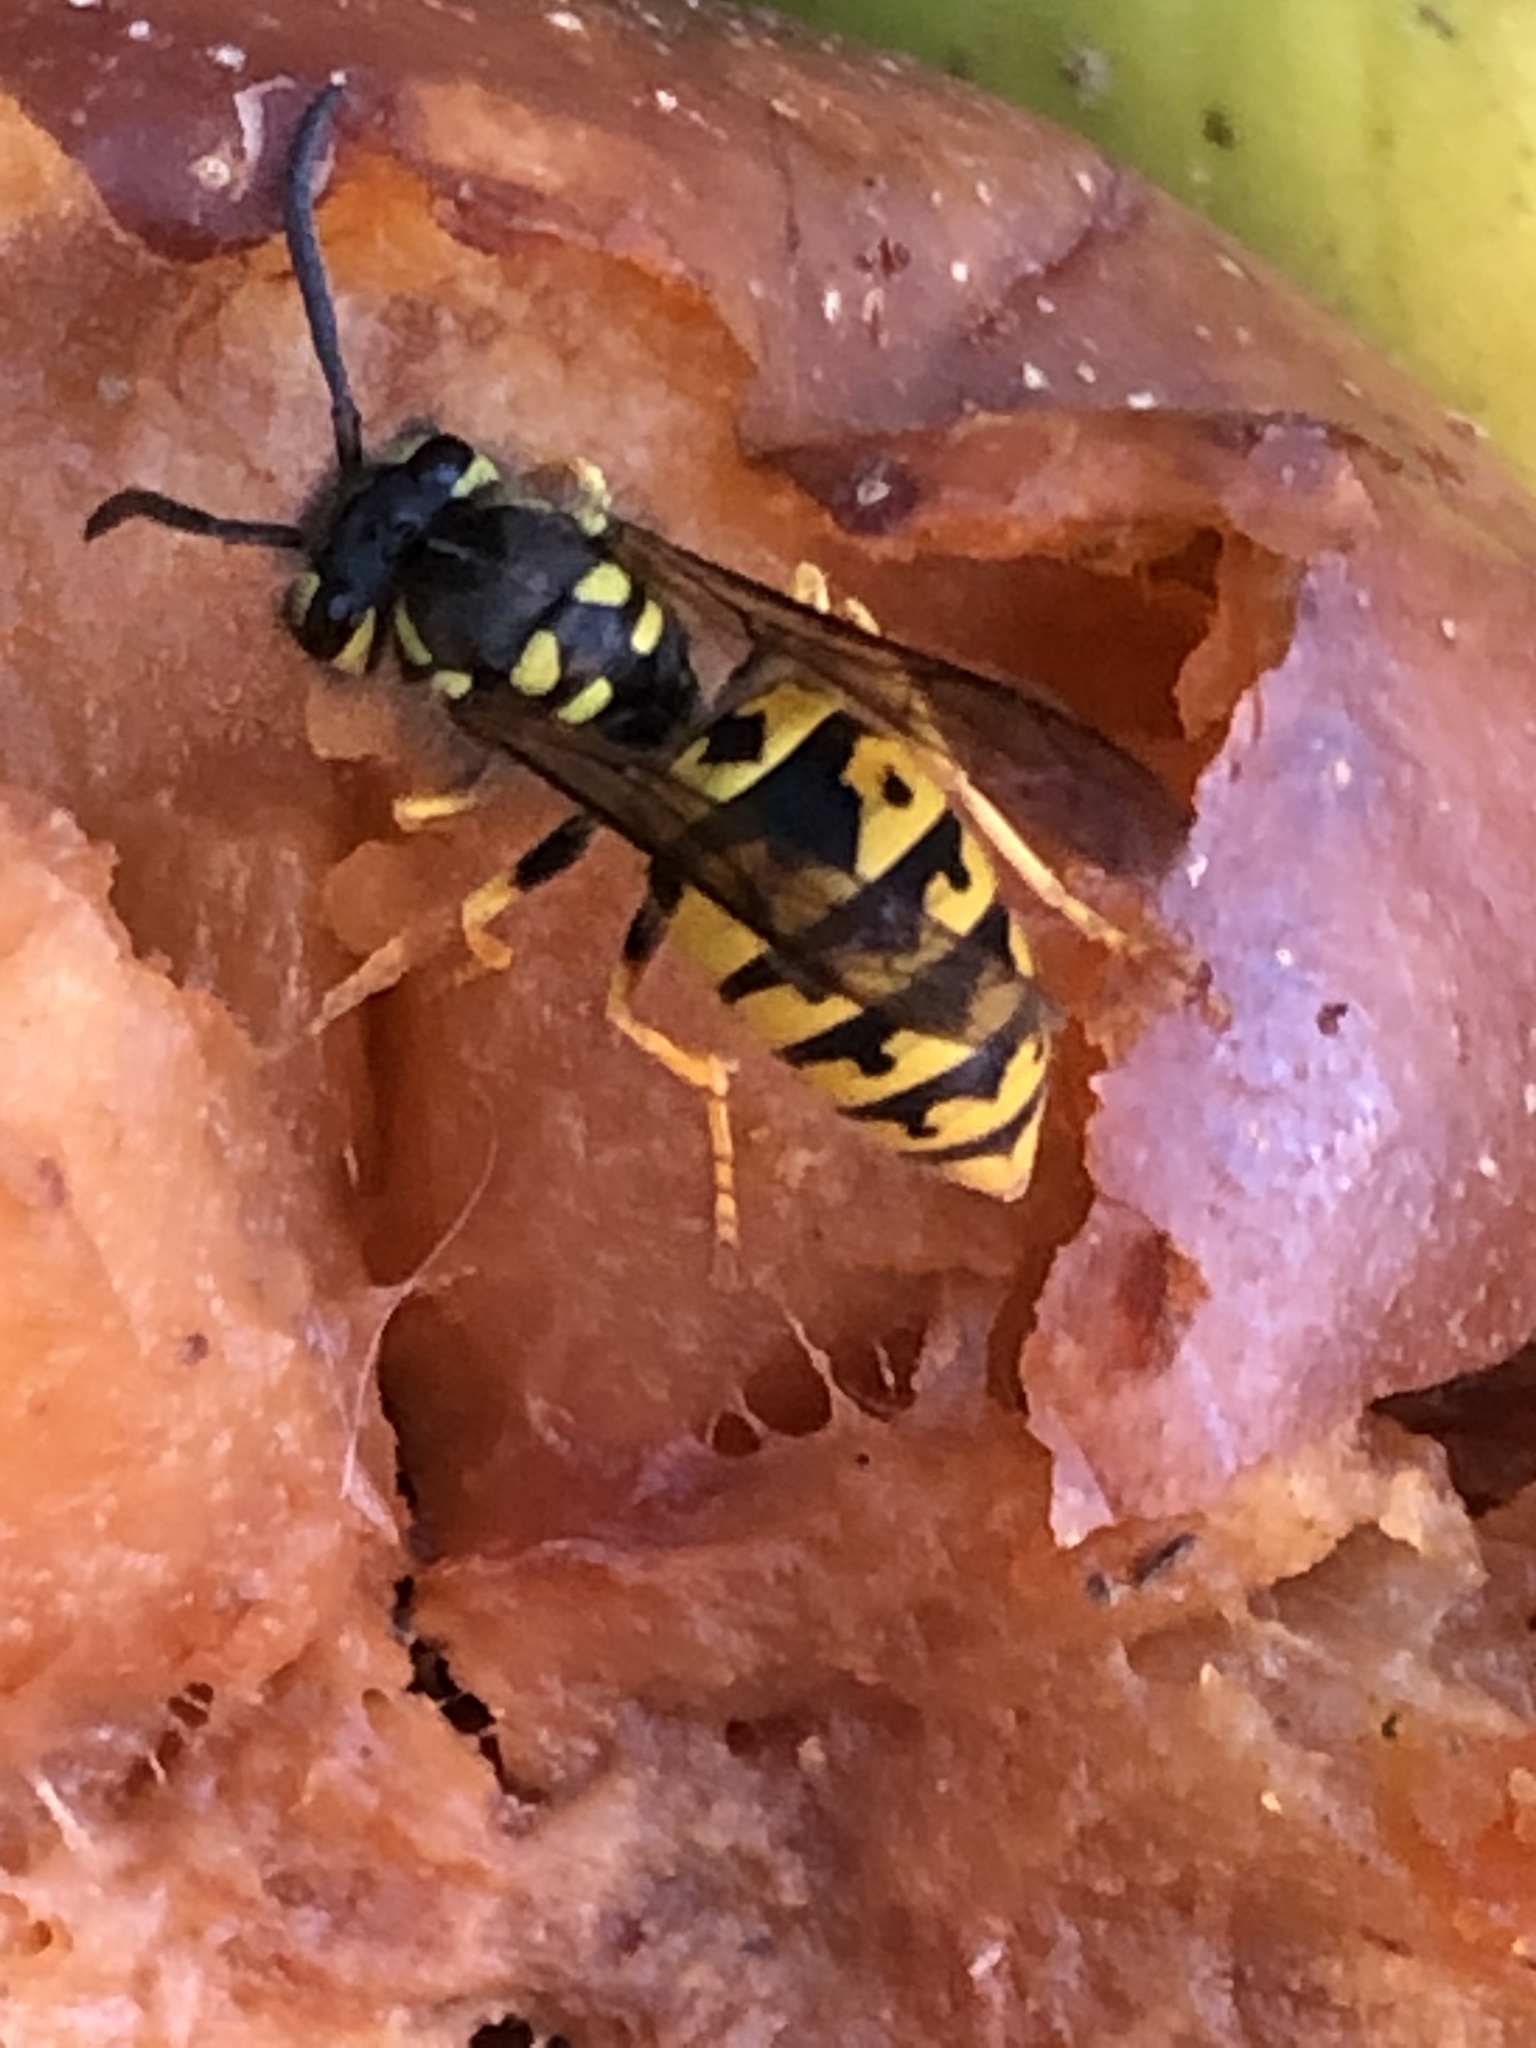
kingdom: Animalia
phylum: Arthropoda
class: Insecta
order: Hymenoptera
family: Vespidae
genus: Vespula
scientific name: Vespula germanica
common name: German wasp
